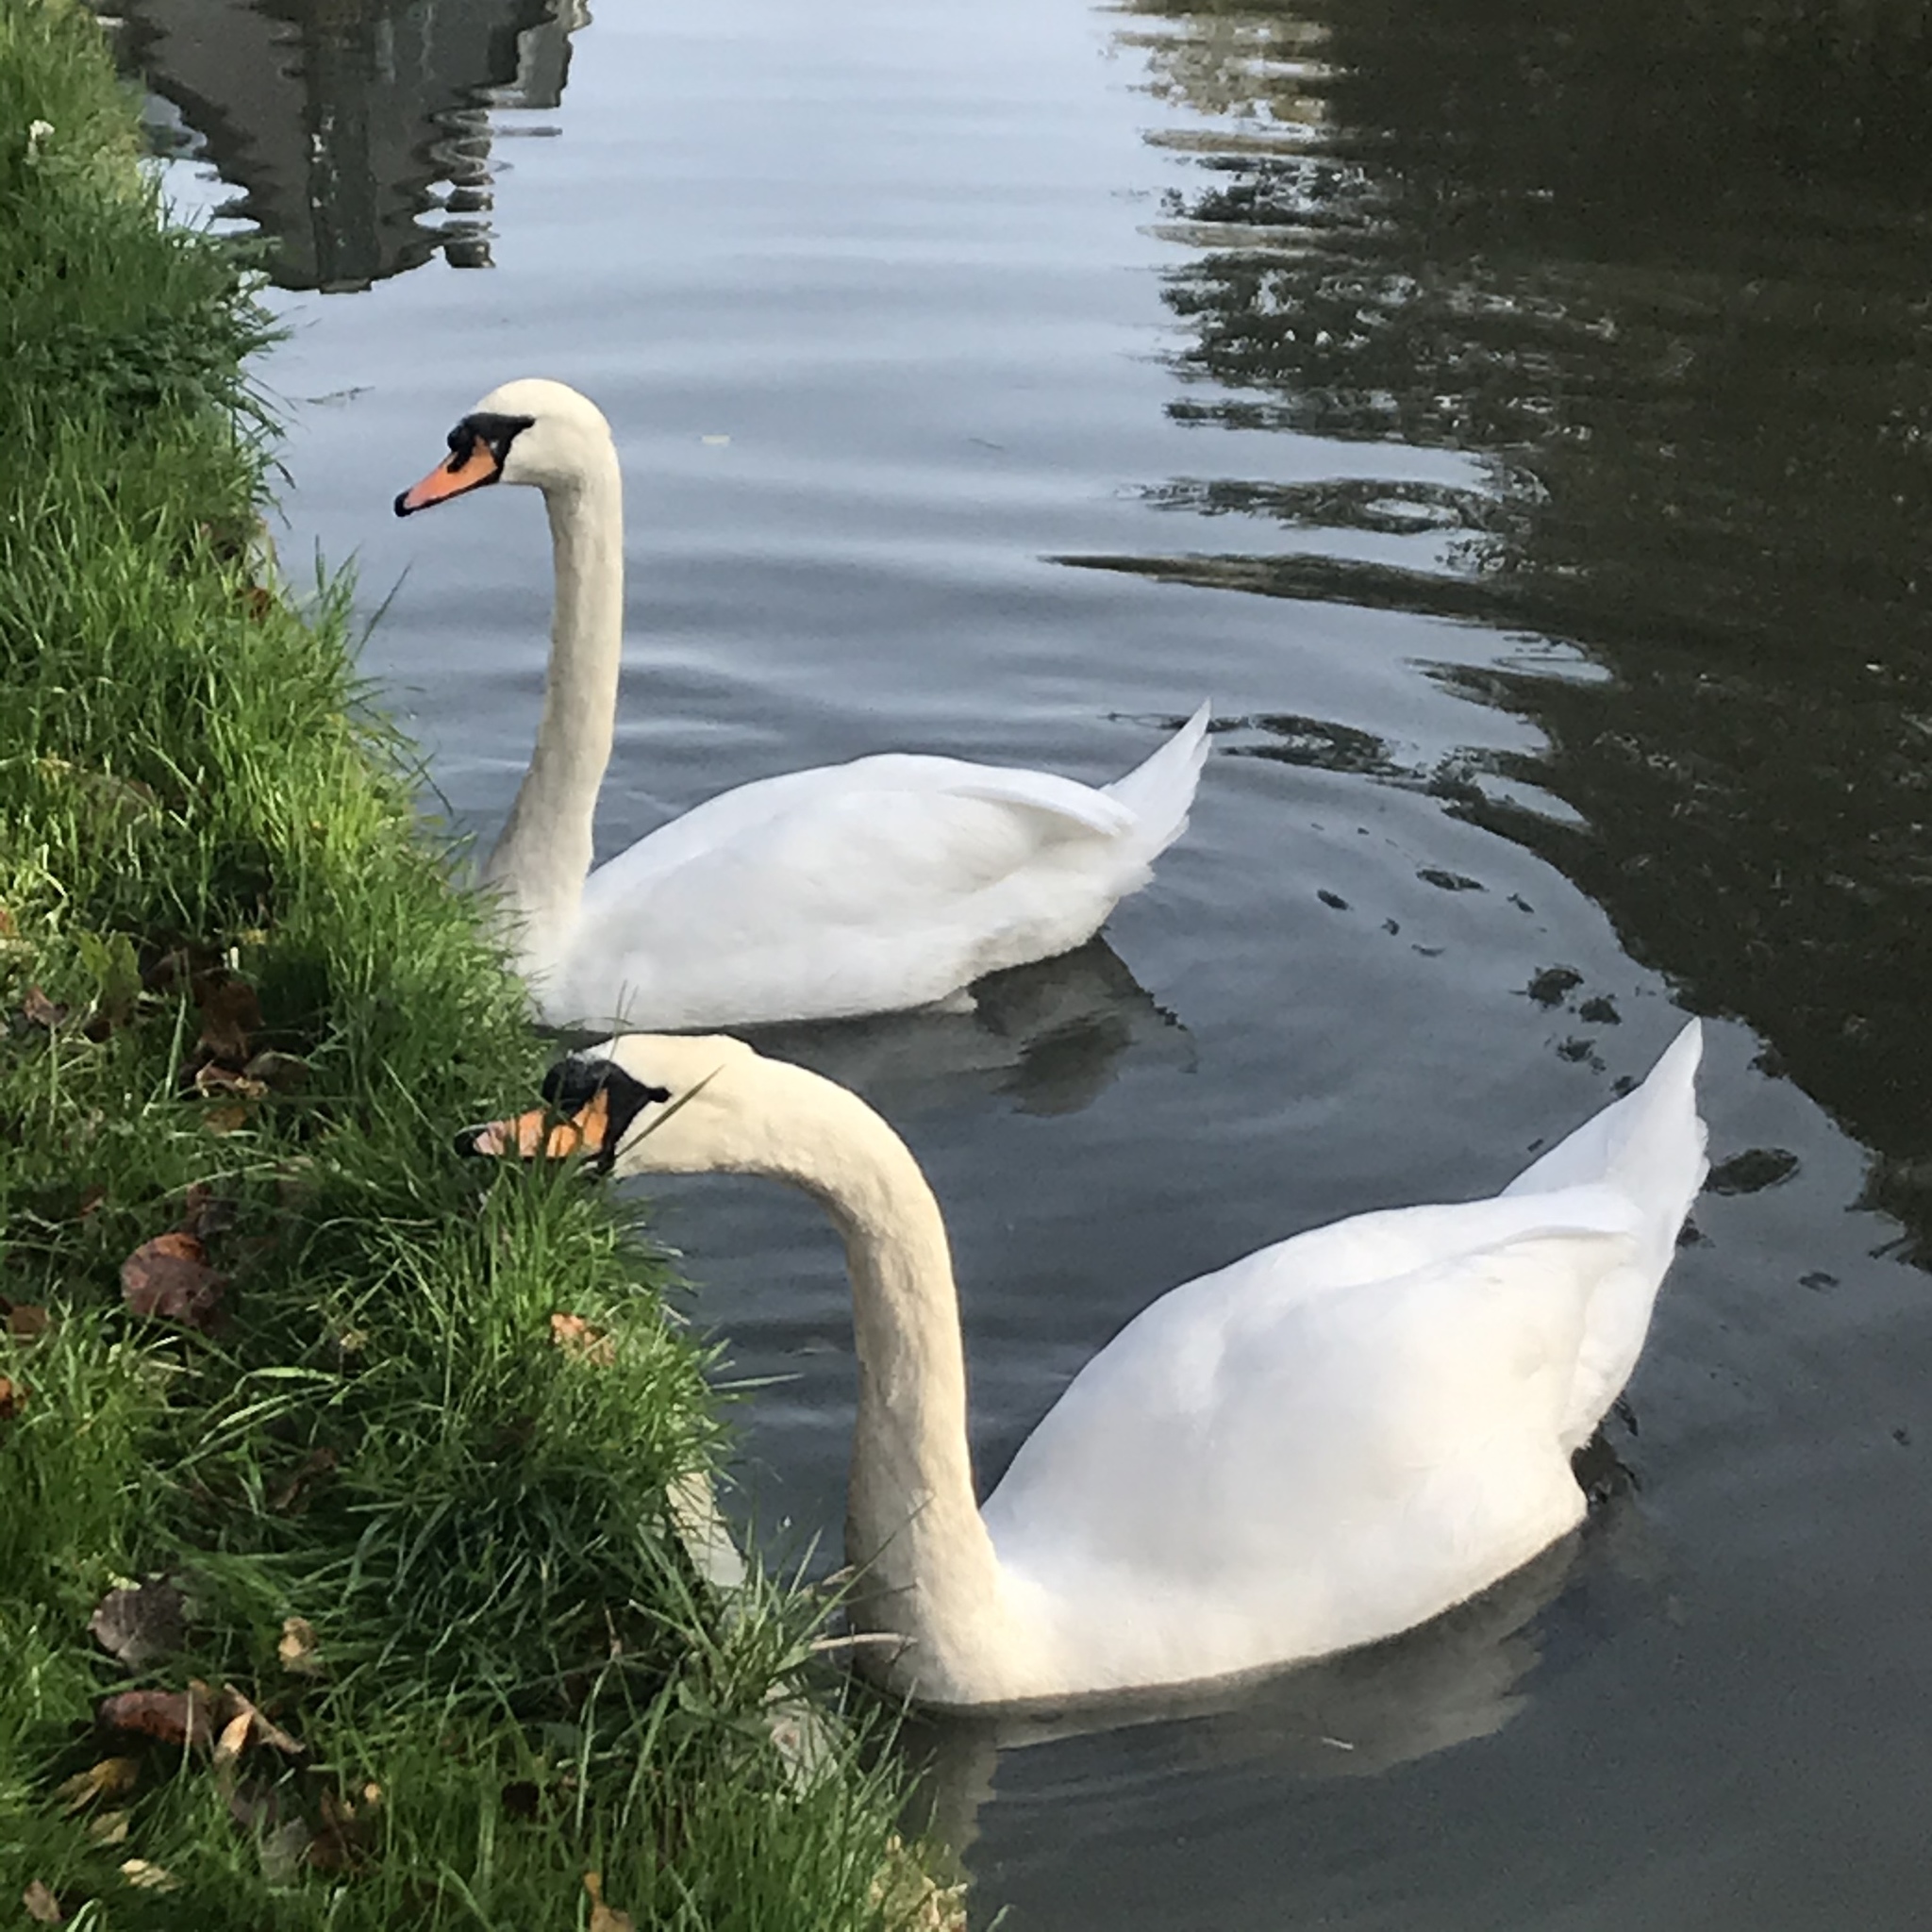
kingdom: Animalia
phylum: Chordata
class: Aves
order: Anseriformes
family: Anatidae
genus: Cygnus
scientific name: Cygnus olor
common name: Mute swan
